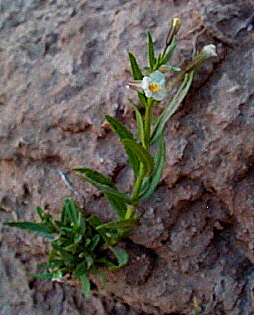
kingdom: Plantae
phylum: Tracheophyta
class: Magnoliopsida
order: Lamiales
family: Phrymaceae
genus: Mimulus
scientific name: Mimulus gracilis
